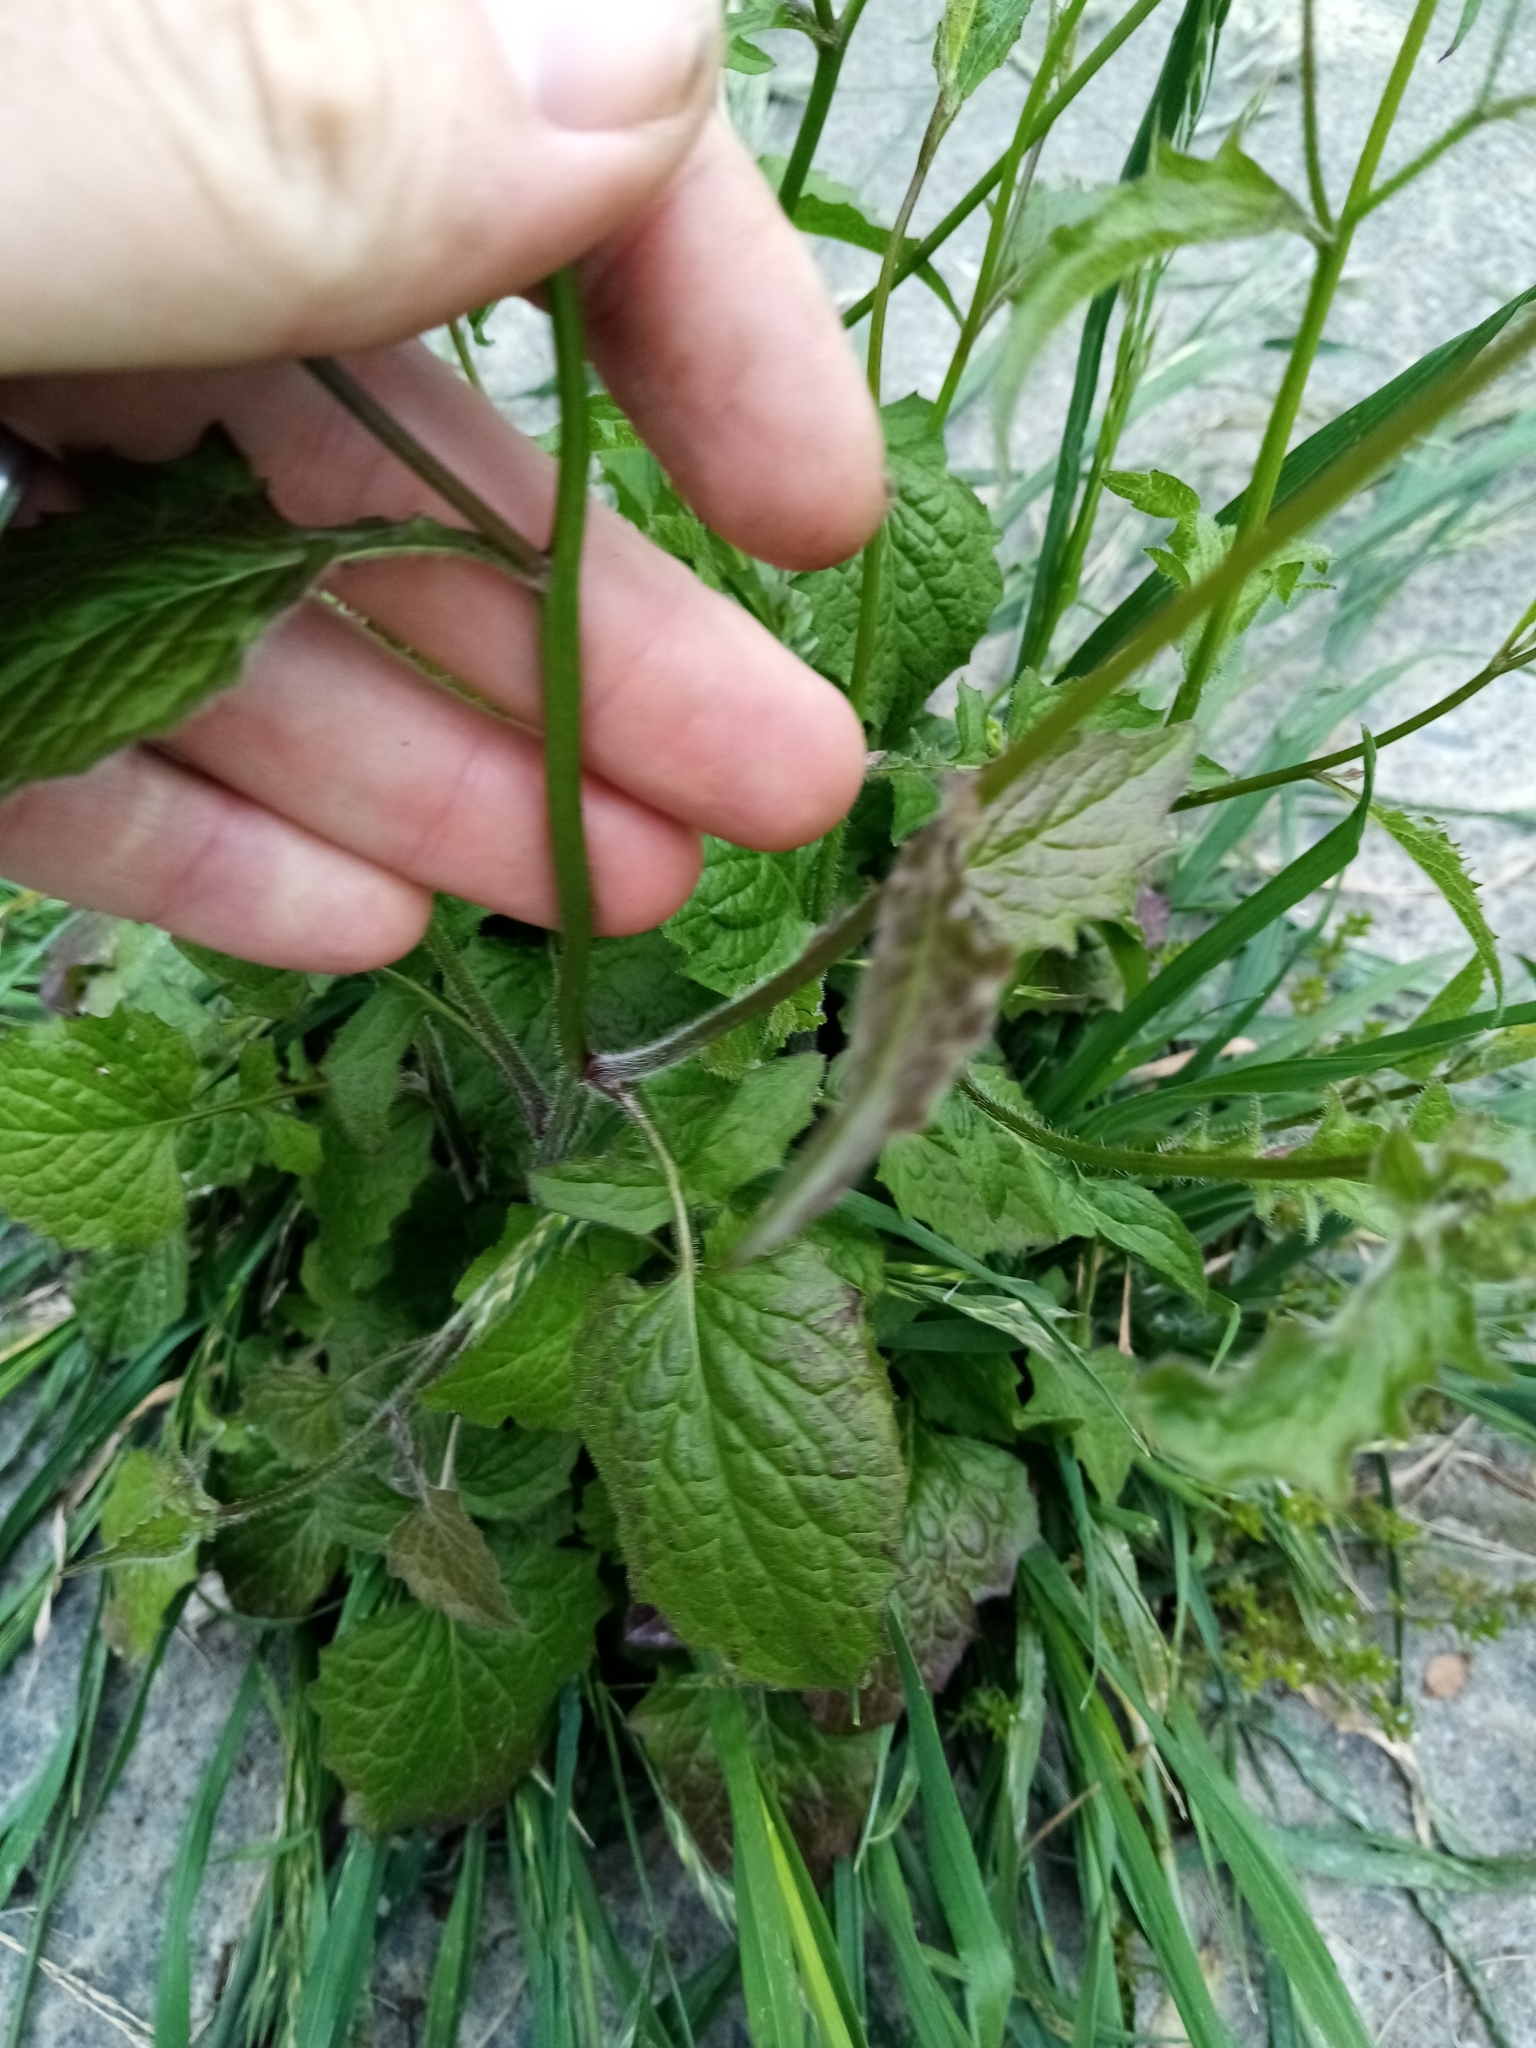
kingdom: Plantae
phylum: Tracheophyta
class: Magnoliopsida
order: Asterales
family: Asteraceae
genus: Lapsana
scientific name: Lapsana communis
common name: Nipplewort
